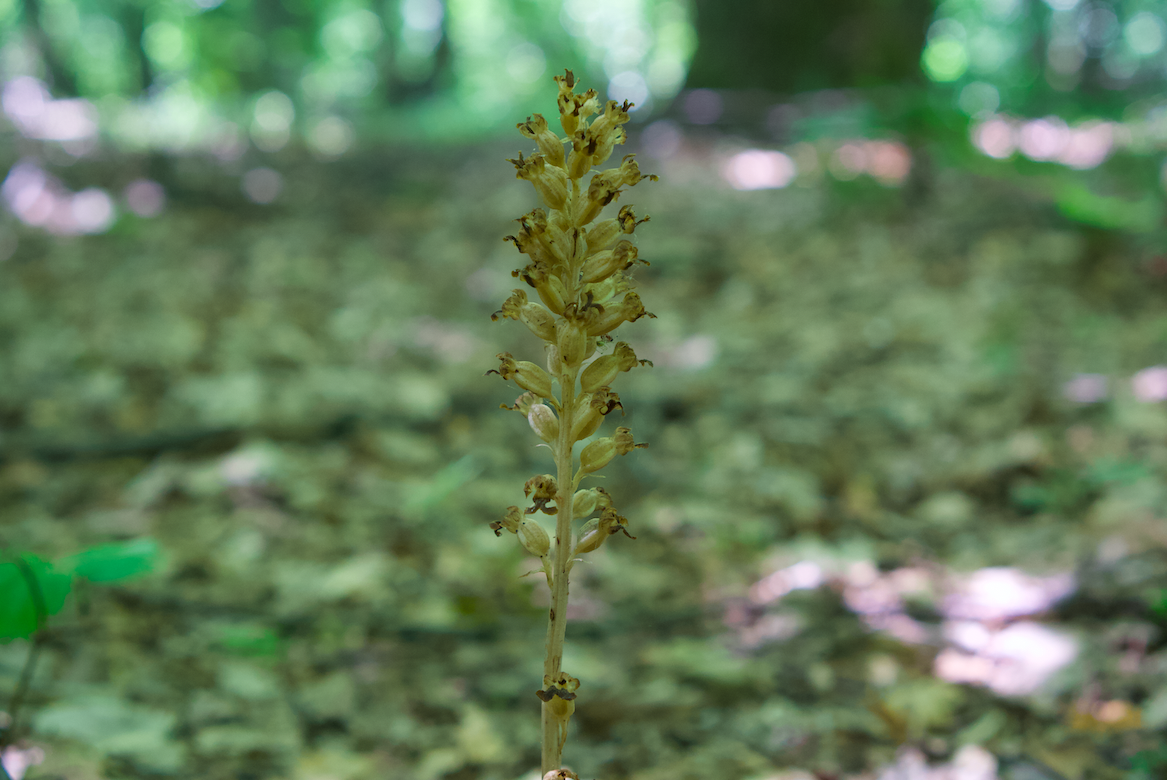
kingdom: Plantae
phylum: Tracheophyta
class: Liliopsida
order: Asparagales
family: Orchidaceae
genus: Neottia
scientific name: Neottia nidus-avis
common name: Bird's-nest orchid
